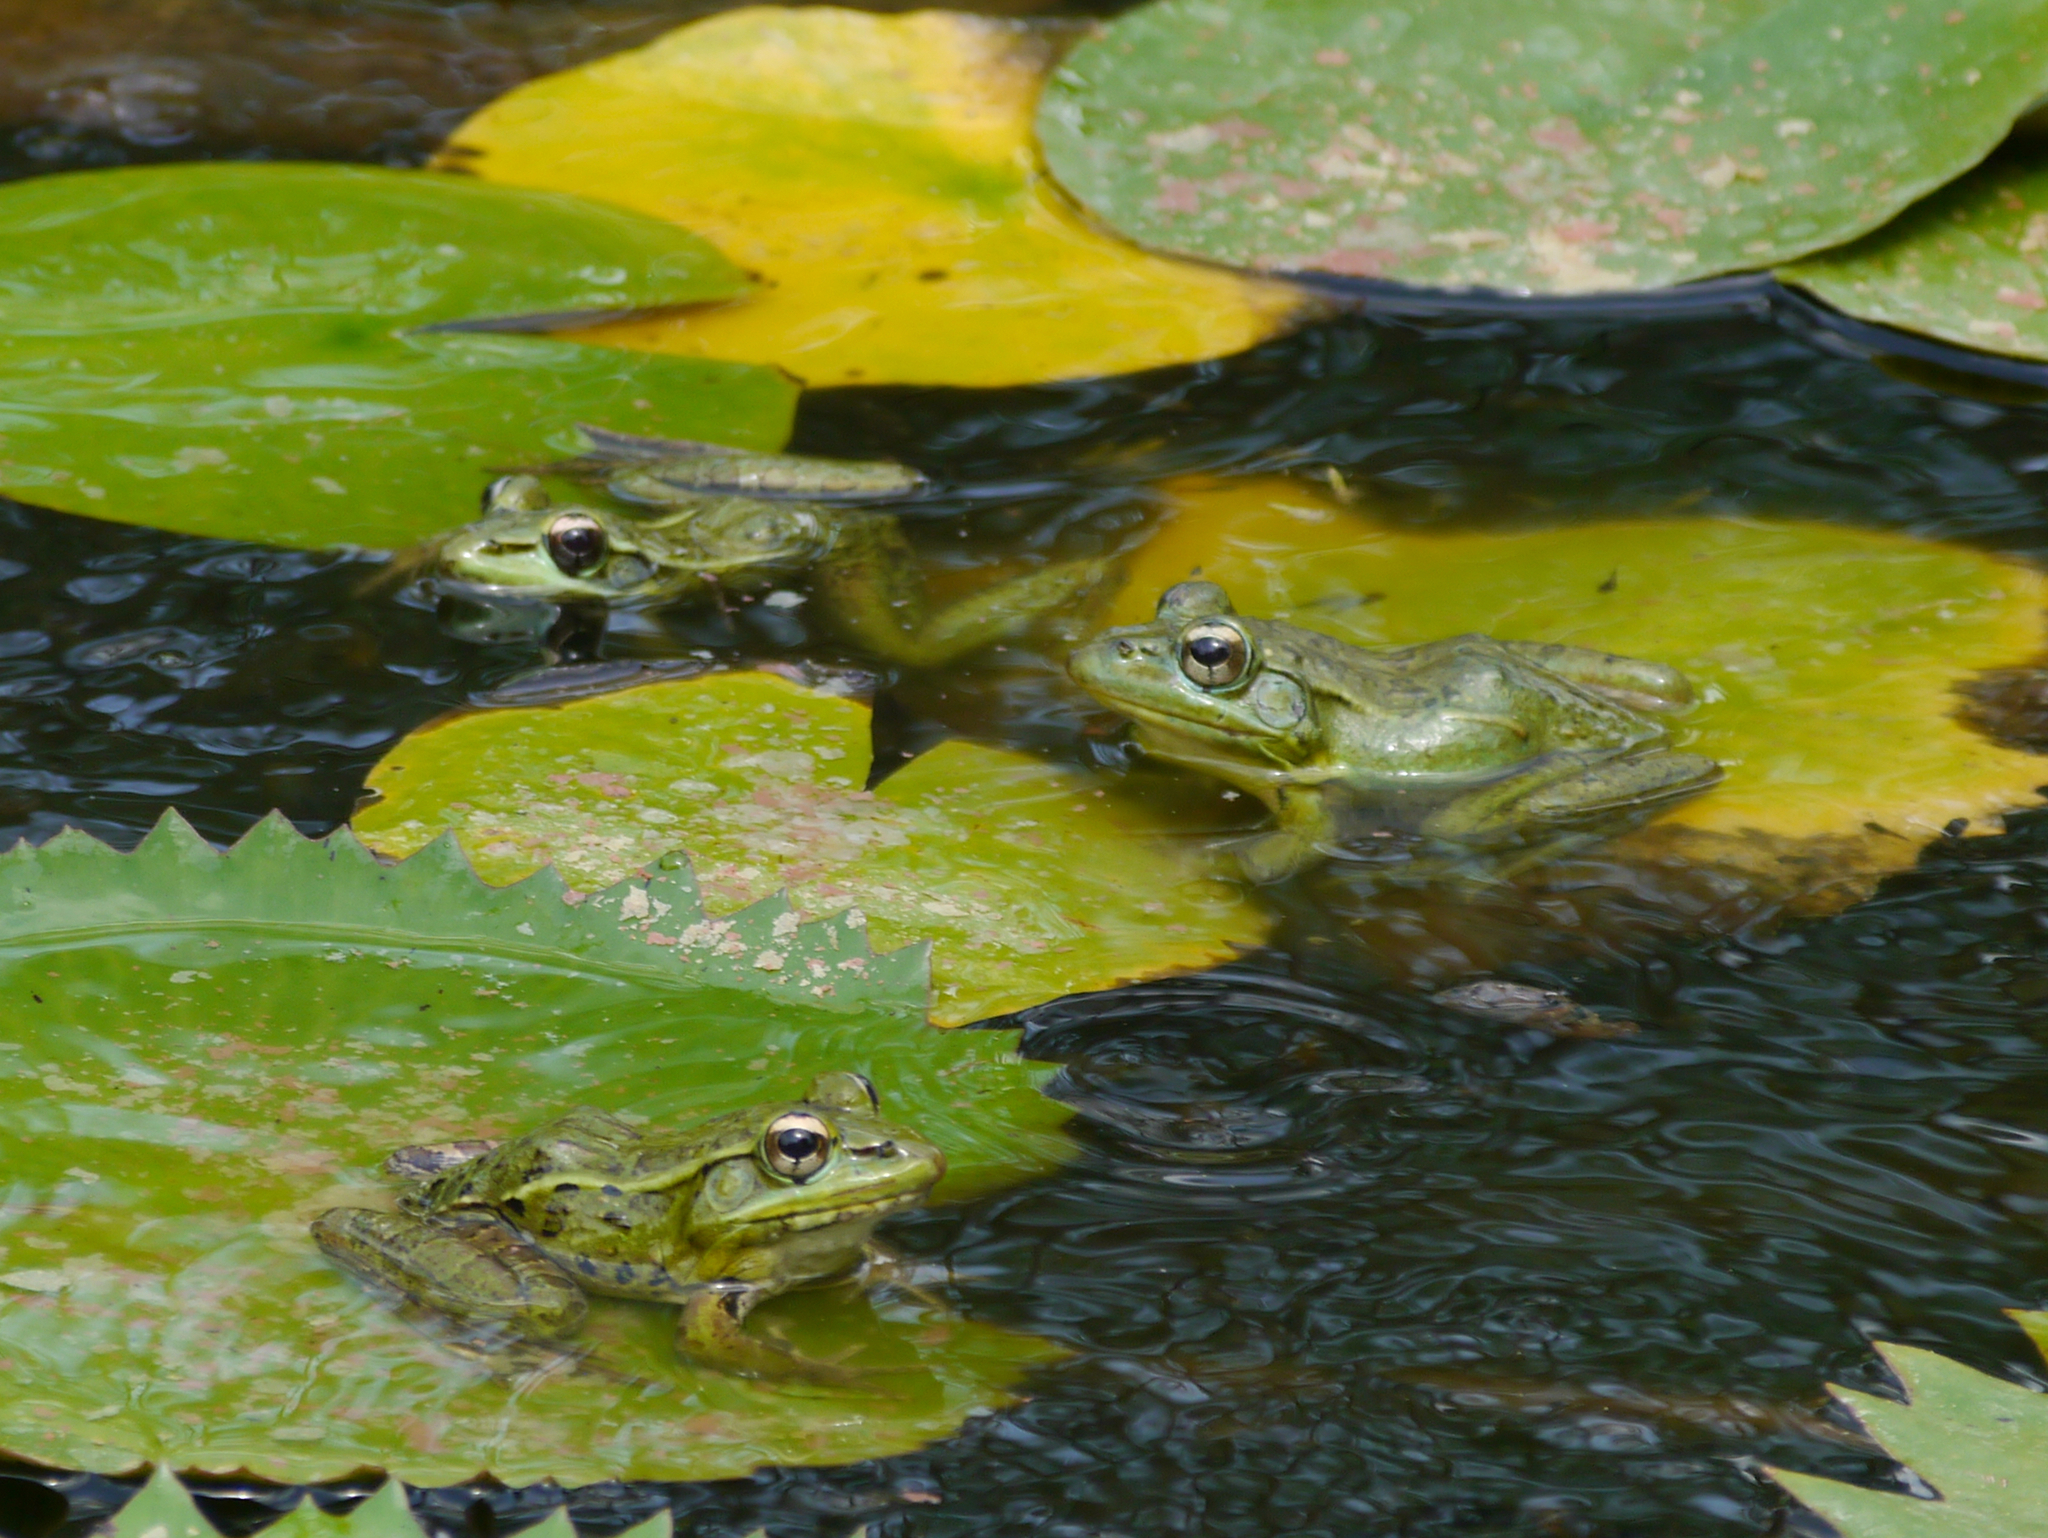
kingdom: Animalia
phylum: Chordata
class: Amphibia
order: Anura
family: Ranidae
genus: Lithobates
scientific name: Lithobates brownorum
